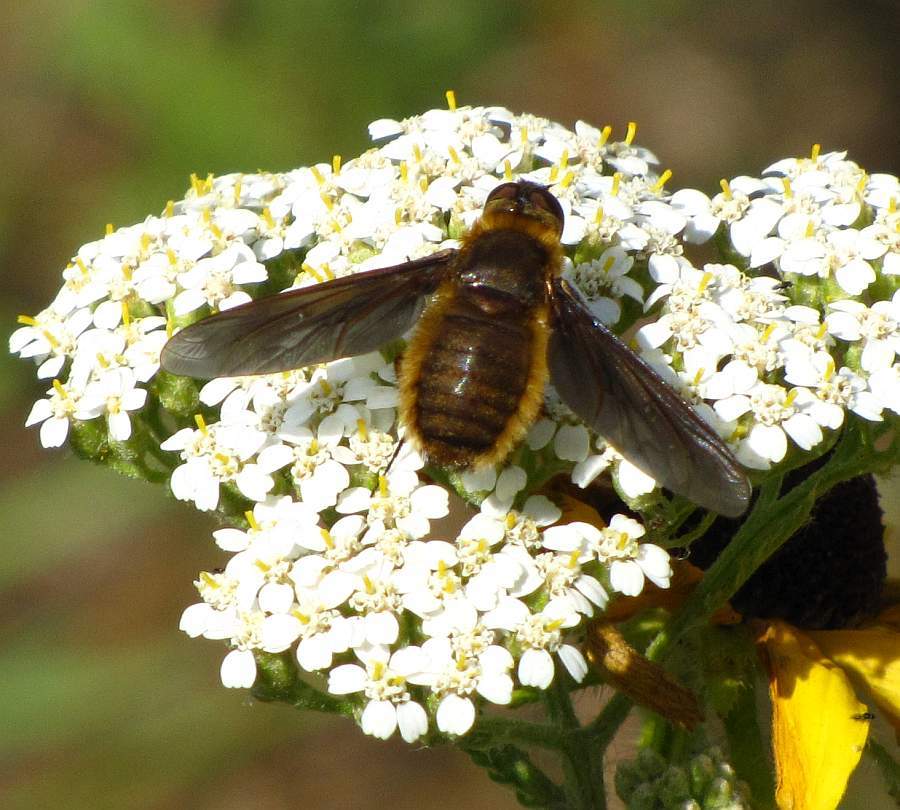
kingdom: Animalia
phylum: Arthropoda
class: Insecta
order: Diptera
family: Bombyliidae
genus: Poecilanthrax
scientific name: Poecilanthrax tegminipennis
